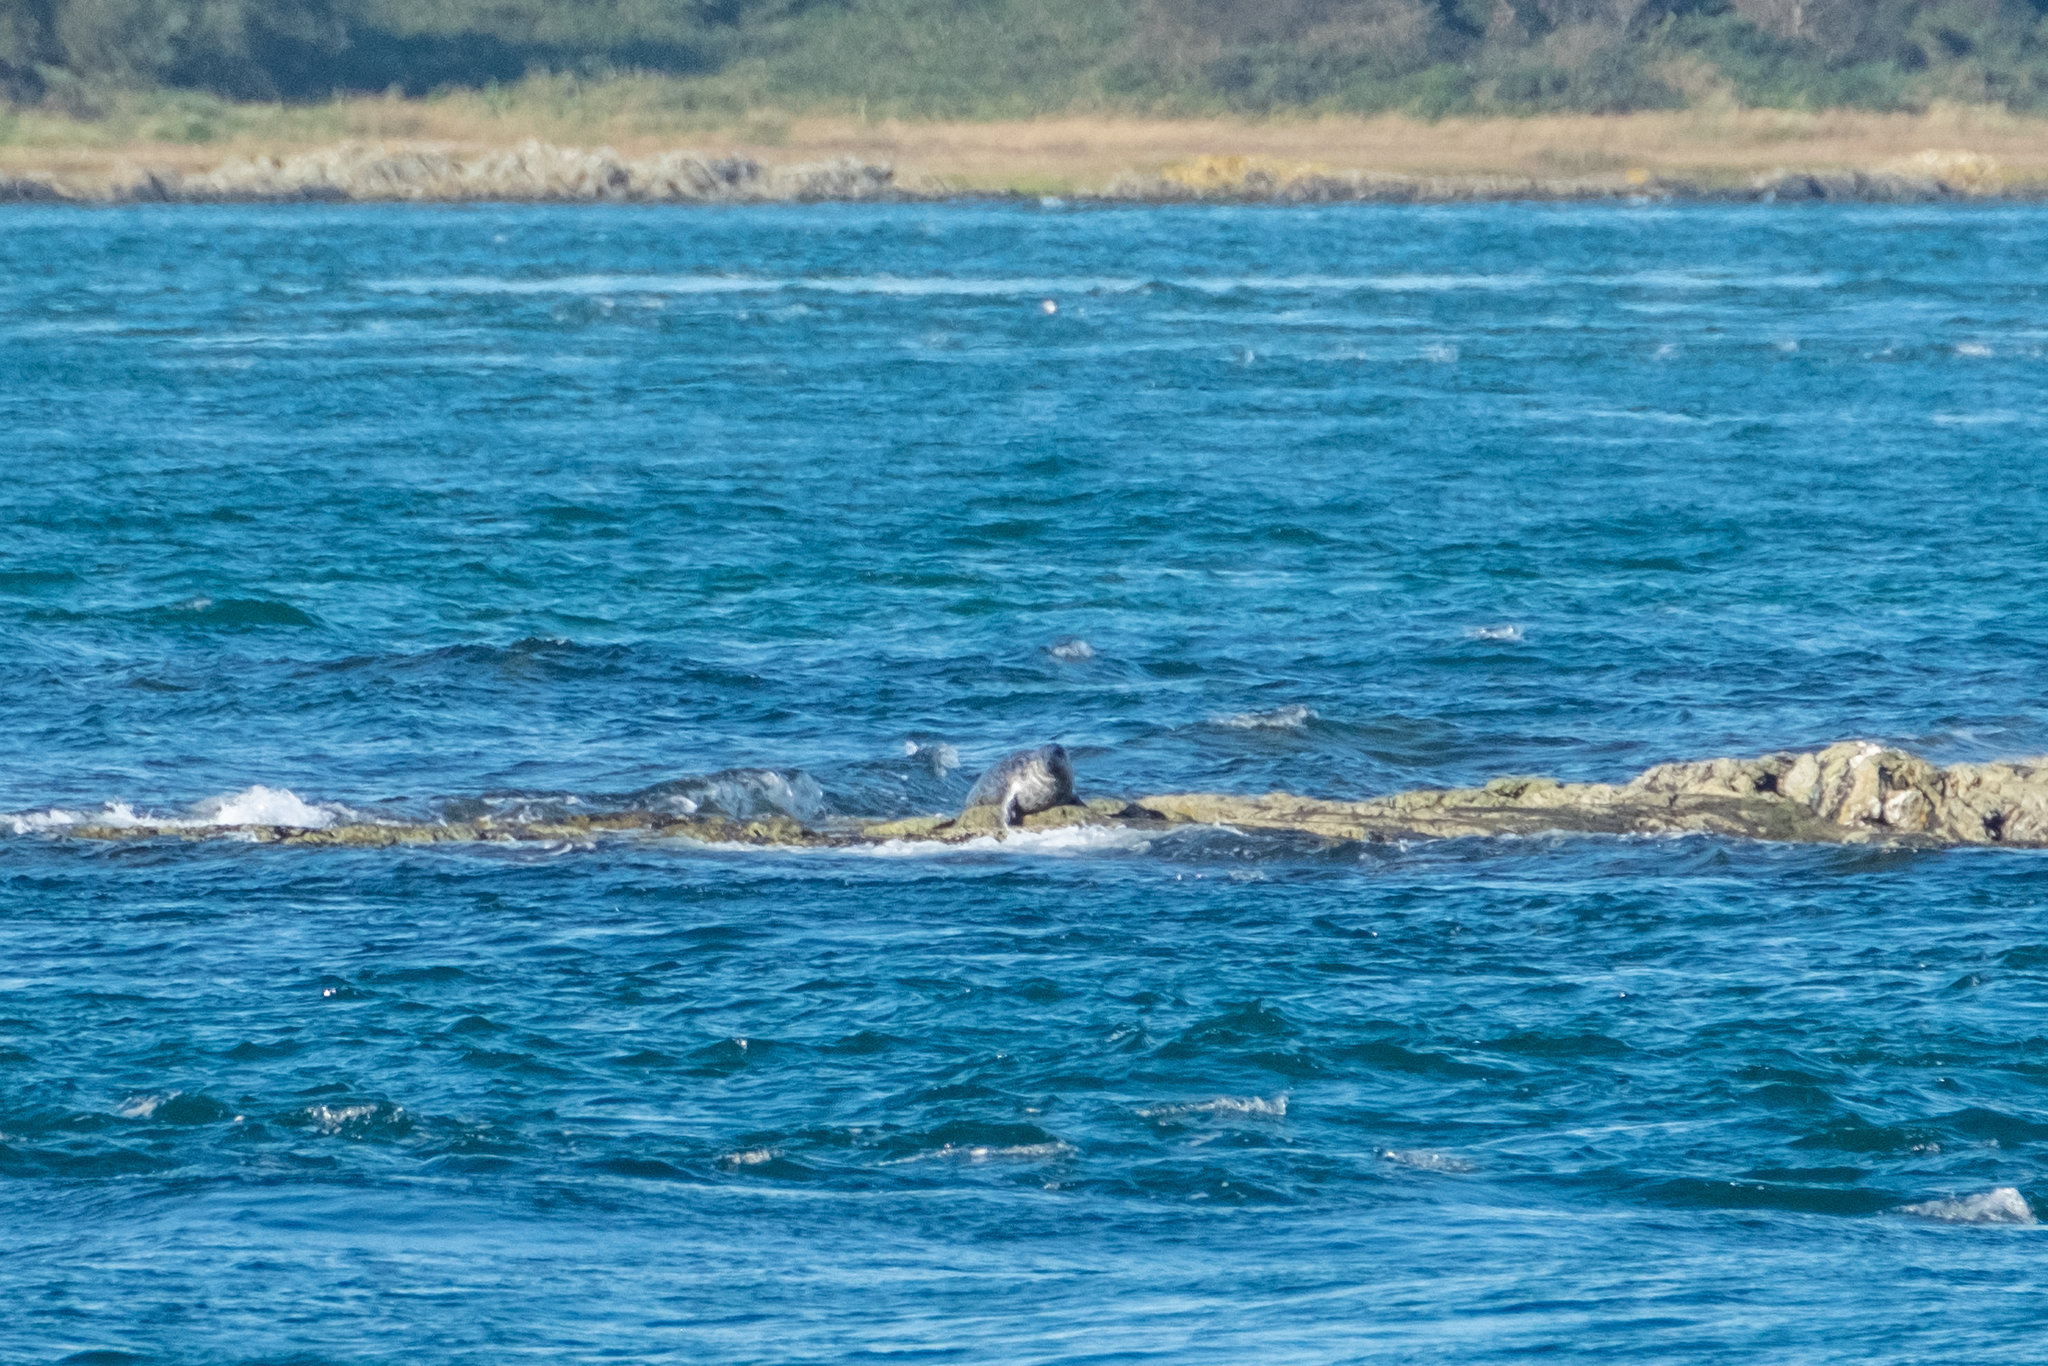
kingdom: Animalia
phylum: Chordata
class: Mammalia
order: Carnivora
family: Phocidae
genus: Phoca
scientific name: Phoca vitulina
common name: Harbor seal
